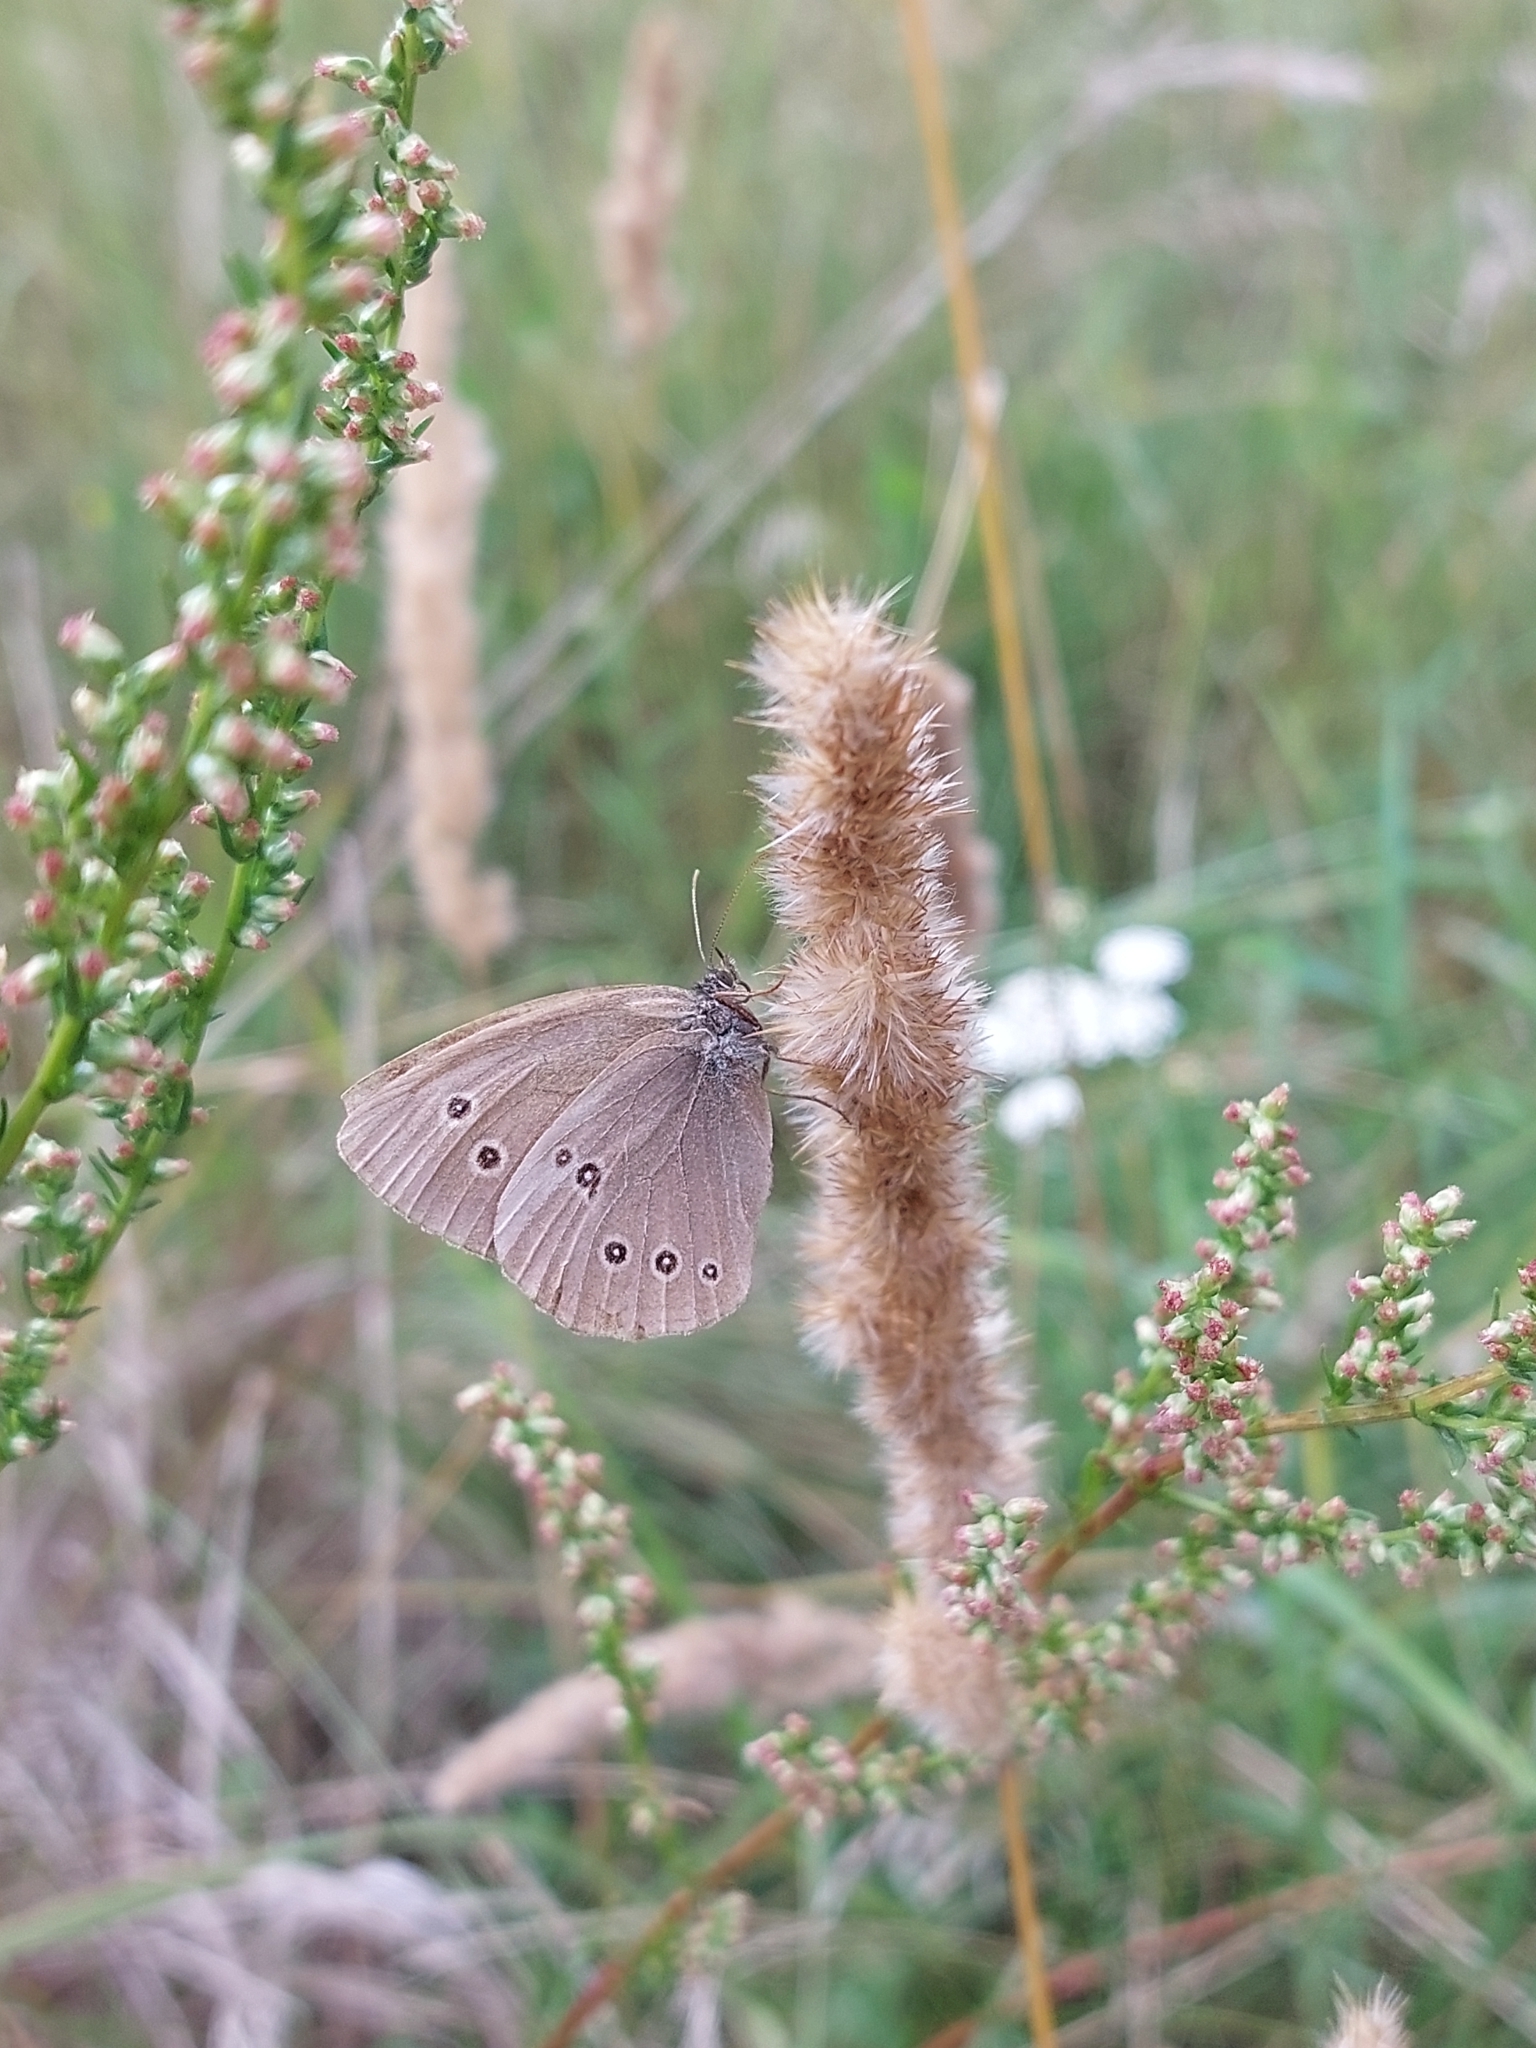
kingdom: Animalia
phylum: Arthropoda
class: Insecta
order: Lepidoptera
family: Nymphalidae
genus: Aphantopus
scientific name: Aphantopus hyperantus
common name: Ringlet
